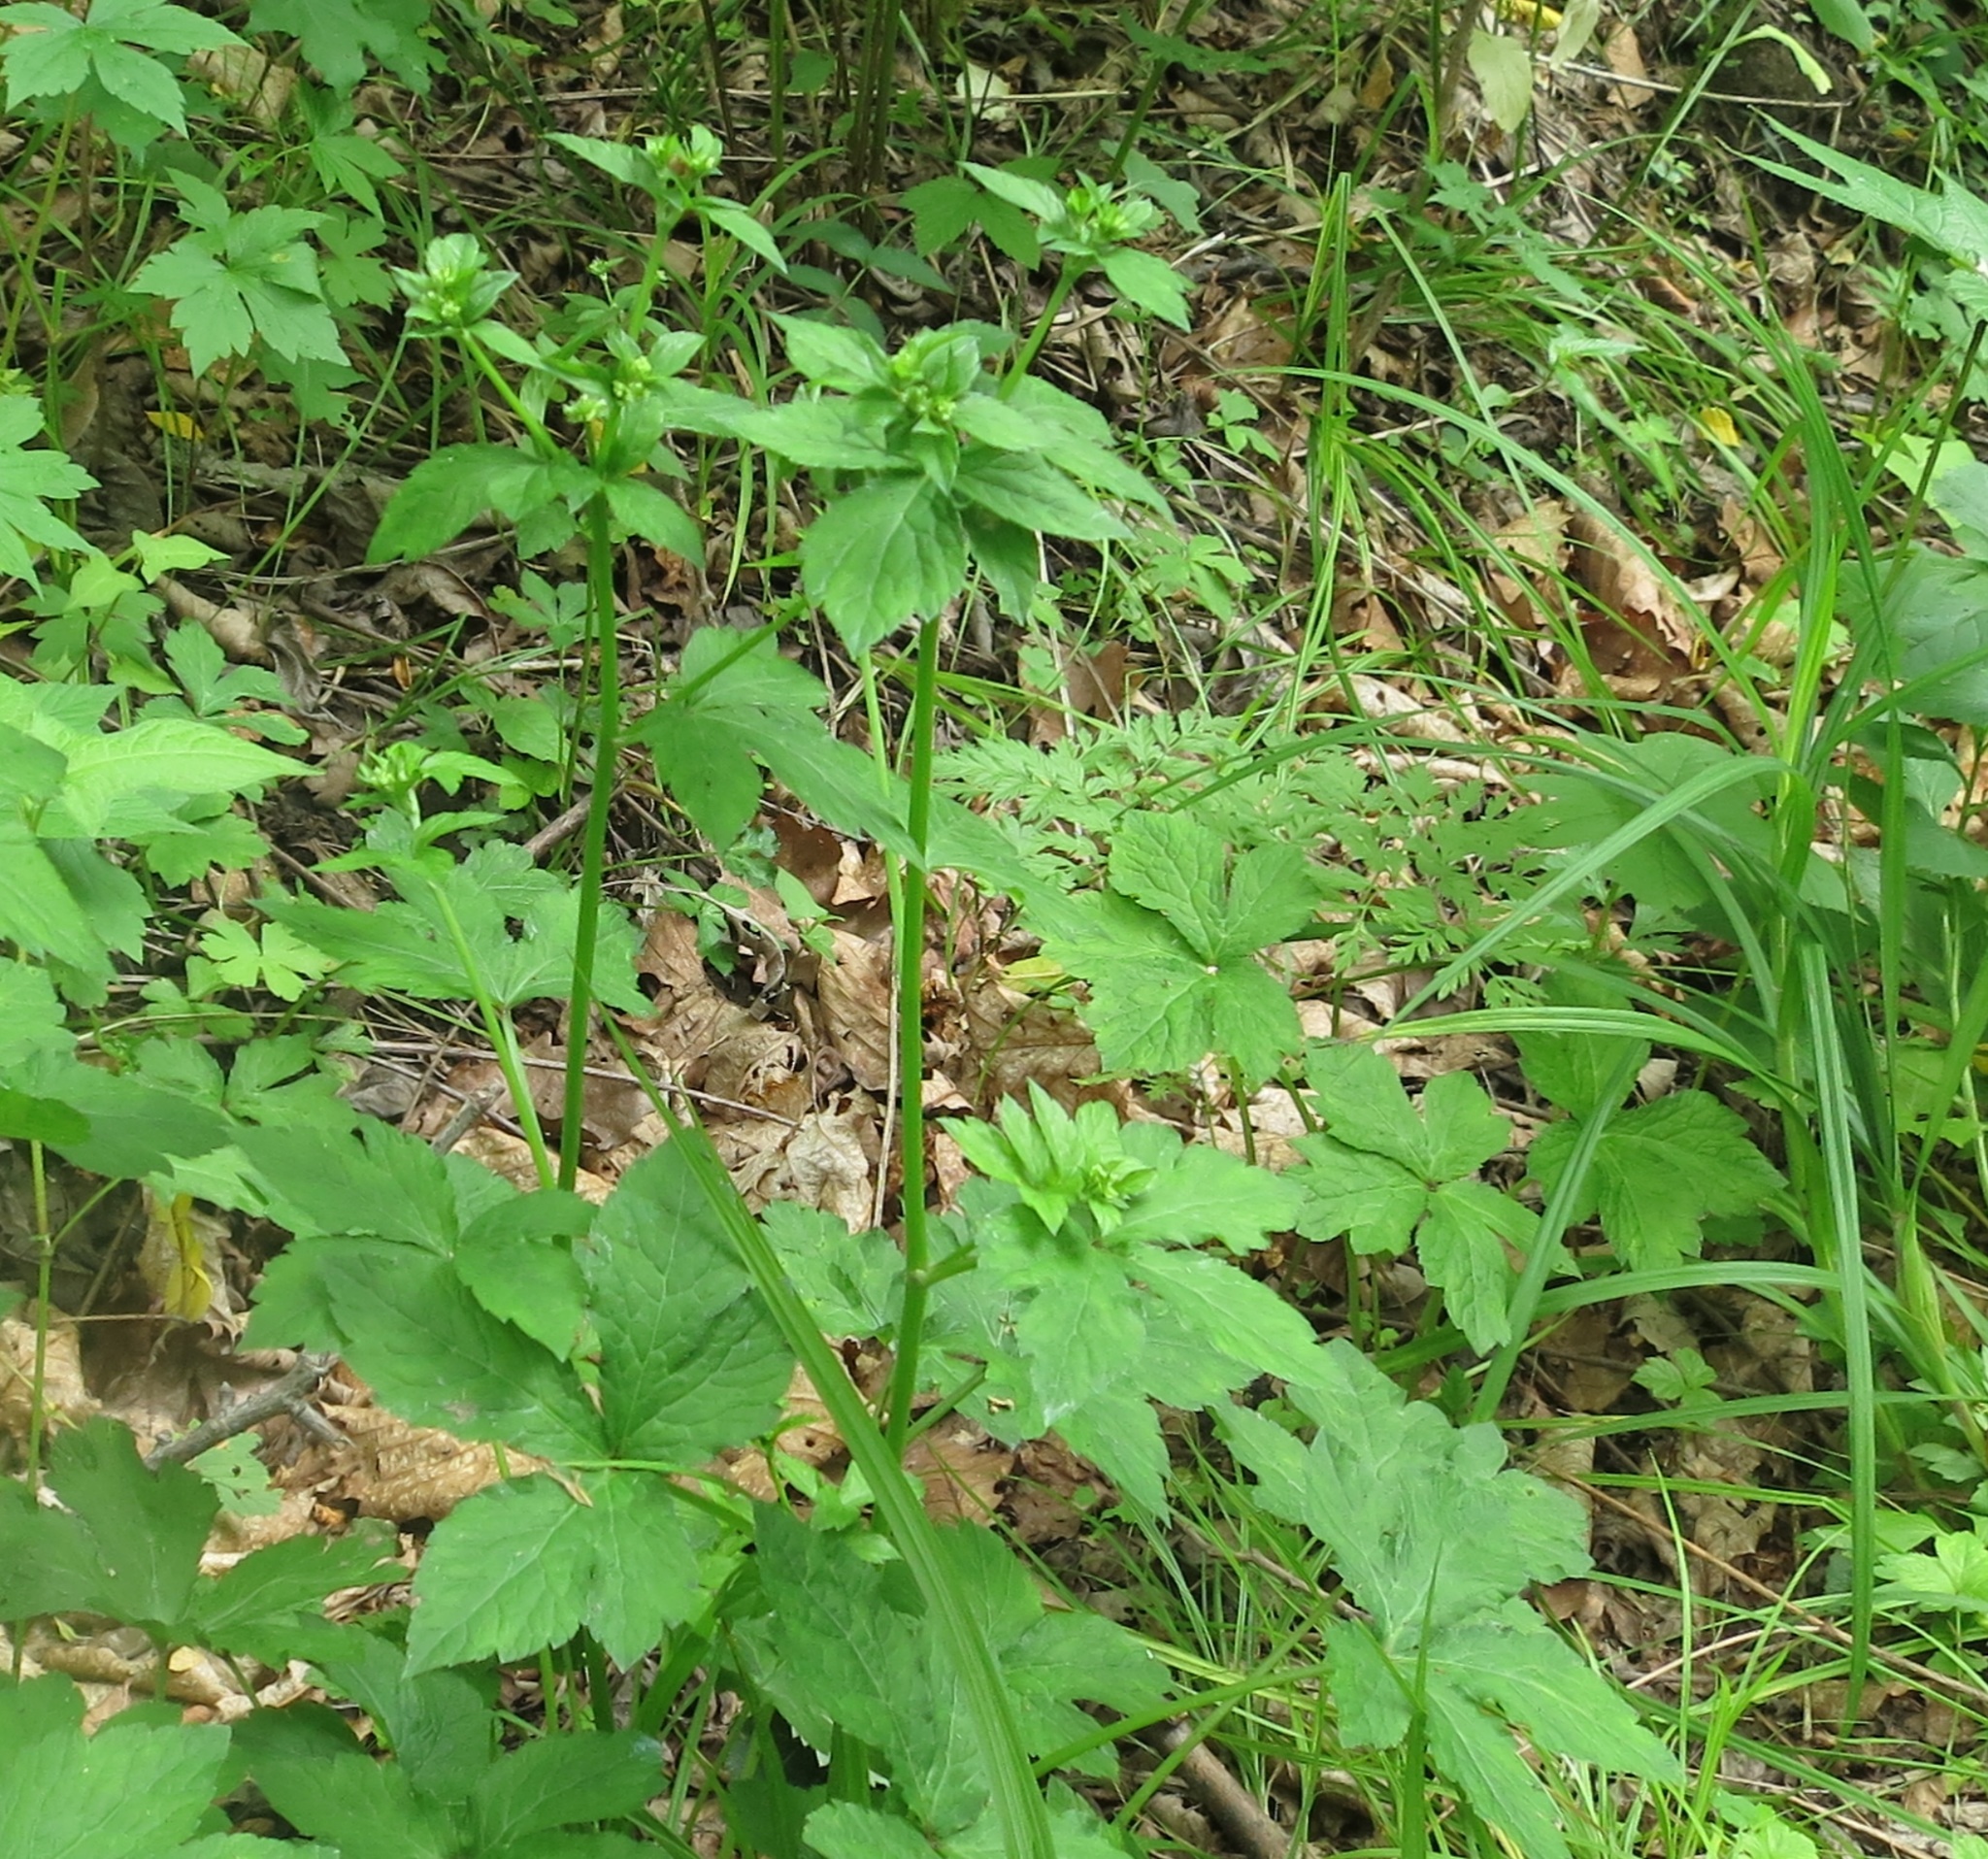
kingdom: Plantae
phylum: Tracheophyta
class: Magnoliopsida
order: Apiales
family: Apiaceae
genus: Sanicula
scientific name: Sanicula chinensis
